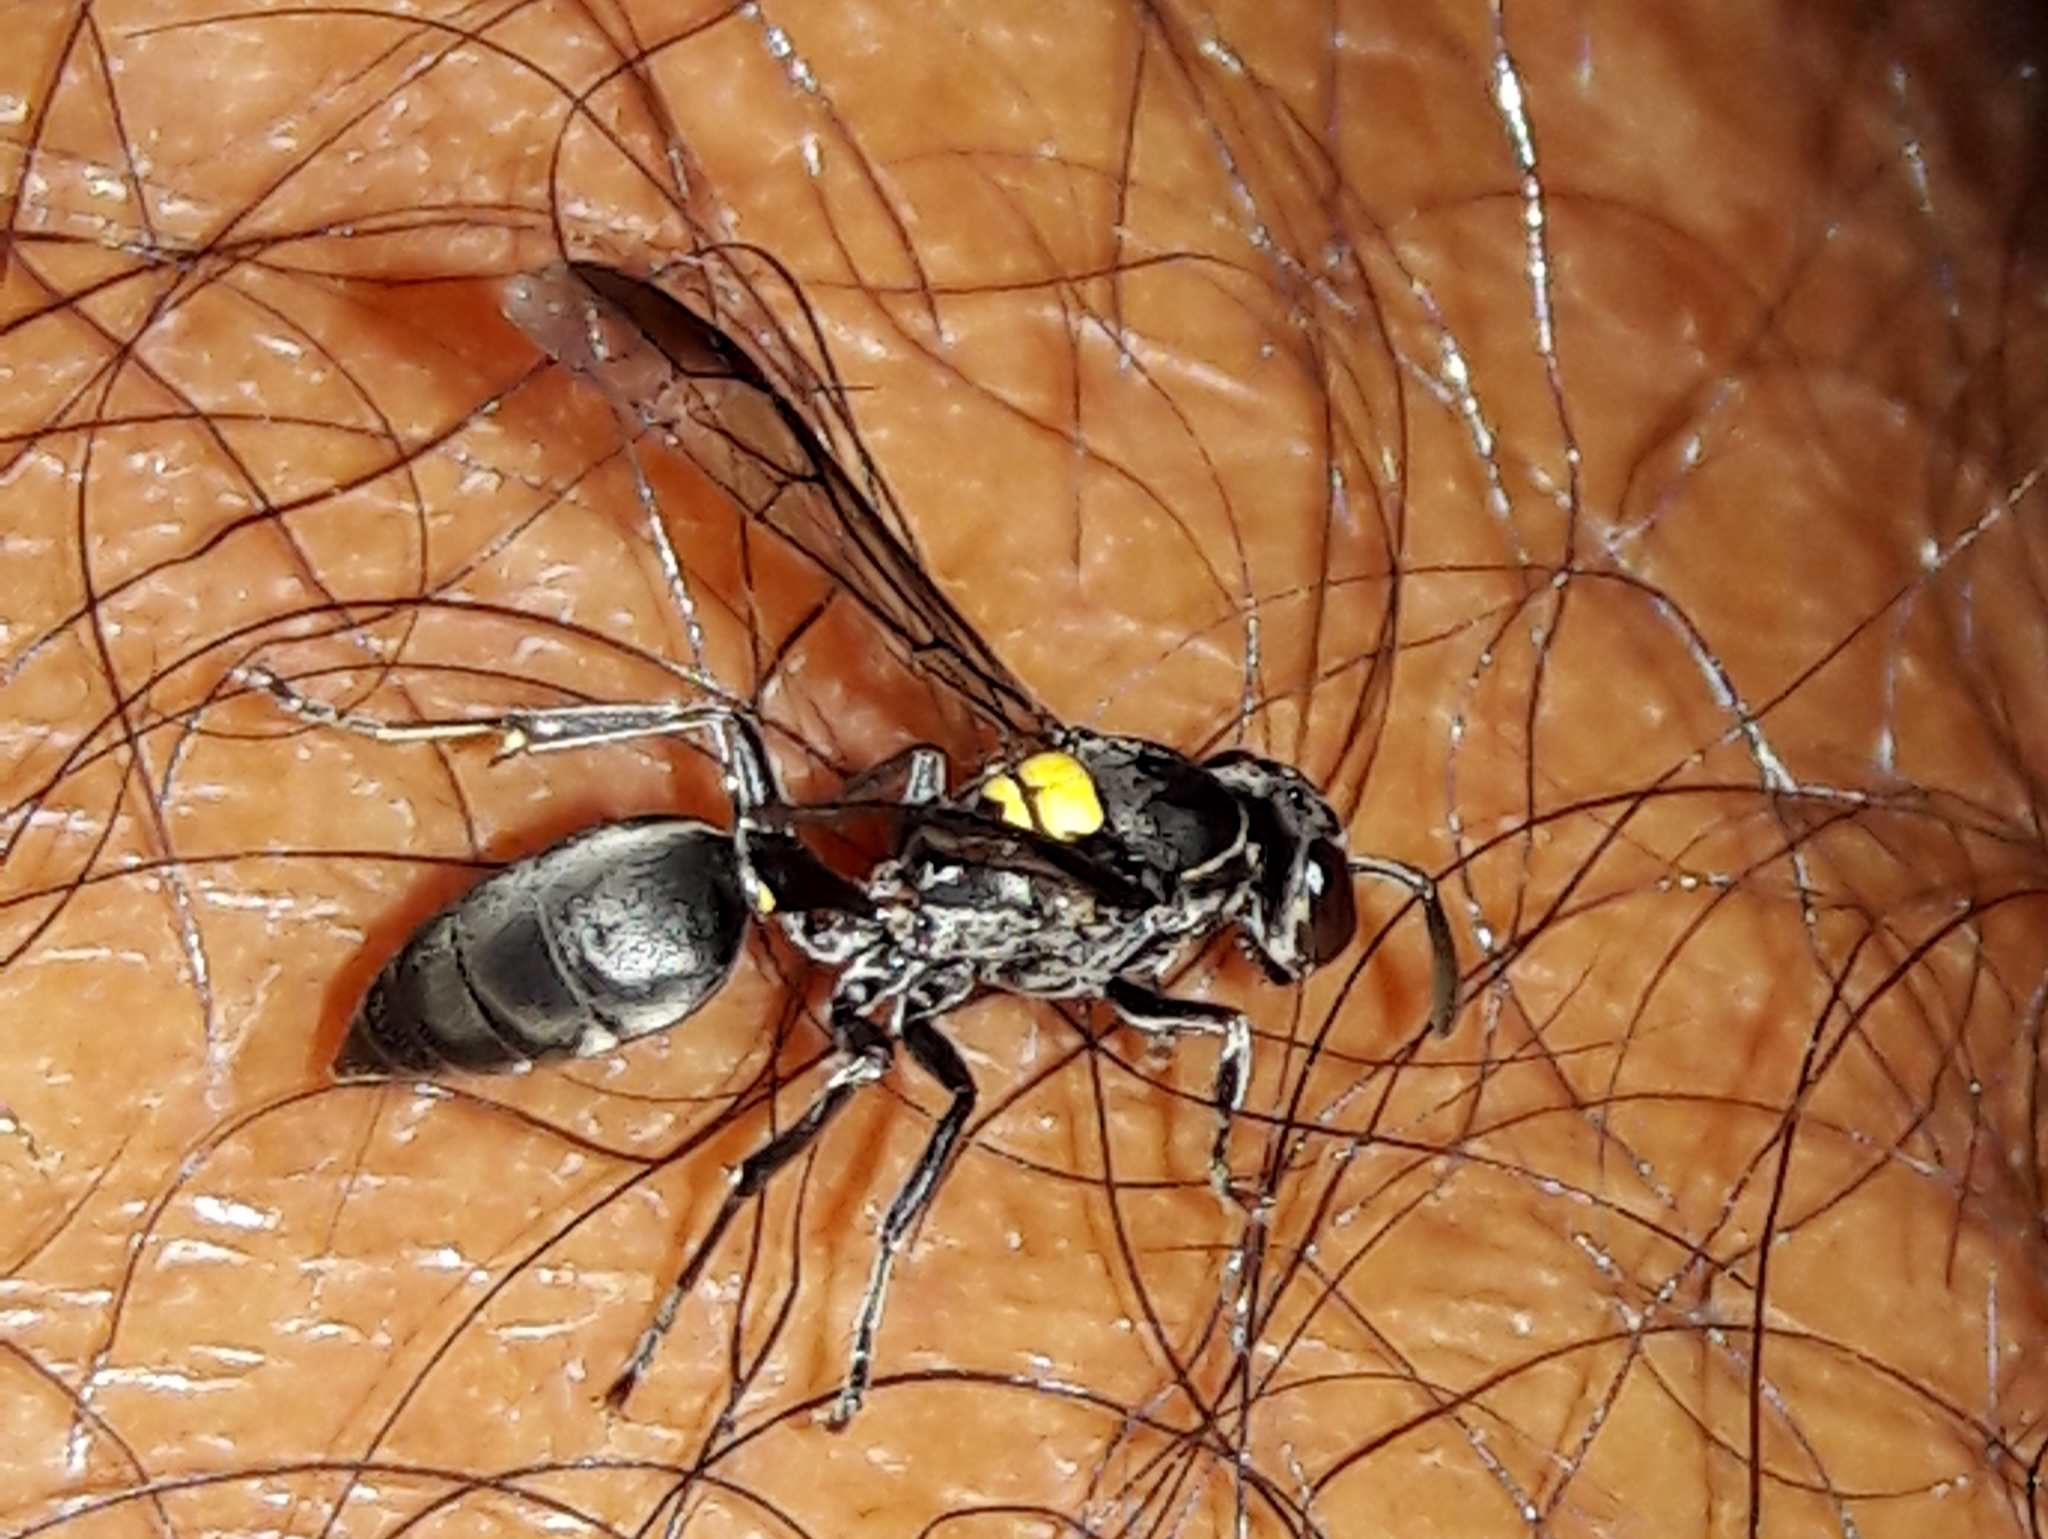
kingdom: Animalia
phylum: Arthropoda
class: Insecta
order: Hymenoptera
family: Eumenidae
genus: Polybia
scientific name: Polybia jurinei
